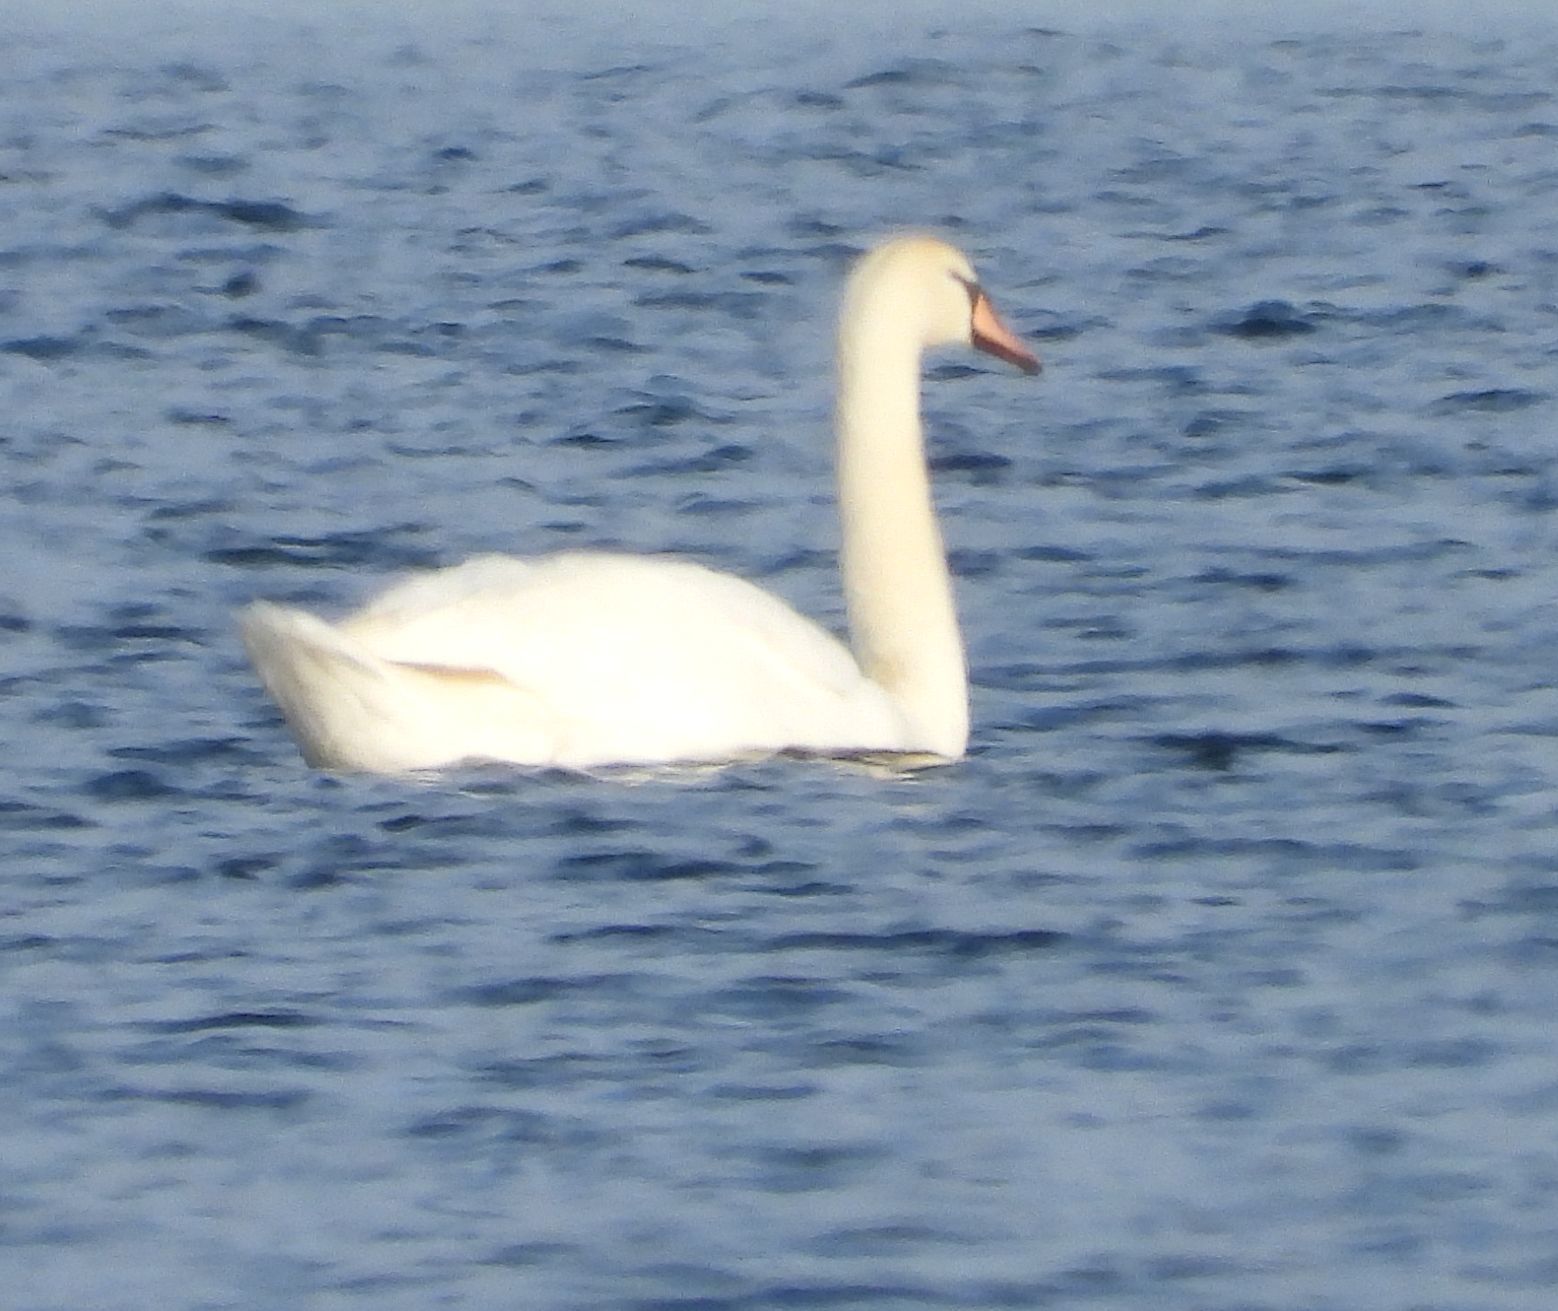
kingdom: Animalia
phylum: Chordata
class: Aves
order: Anseriformes
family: Anatidae
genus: Cygnus
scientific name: Cygnus olor
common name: Mute swan
